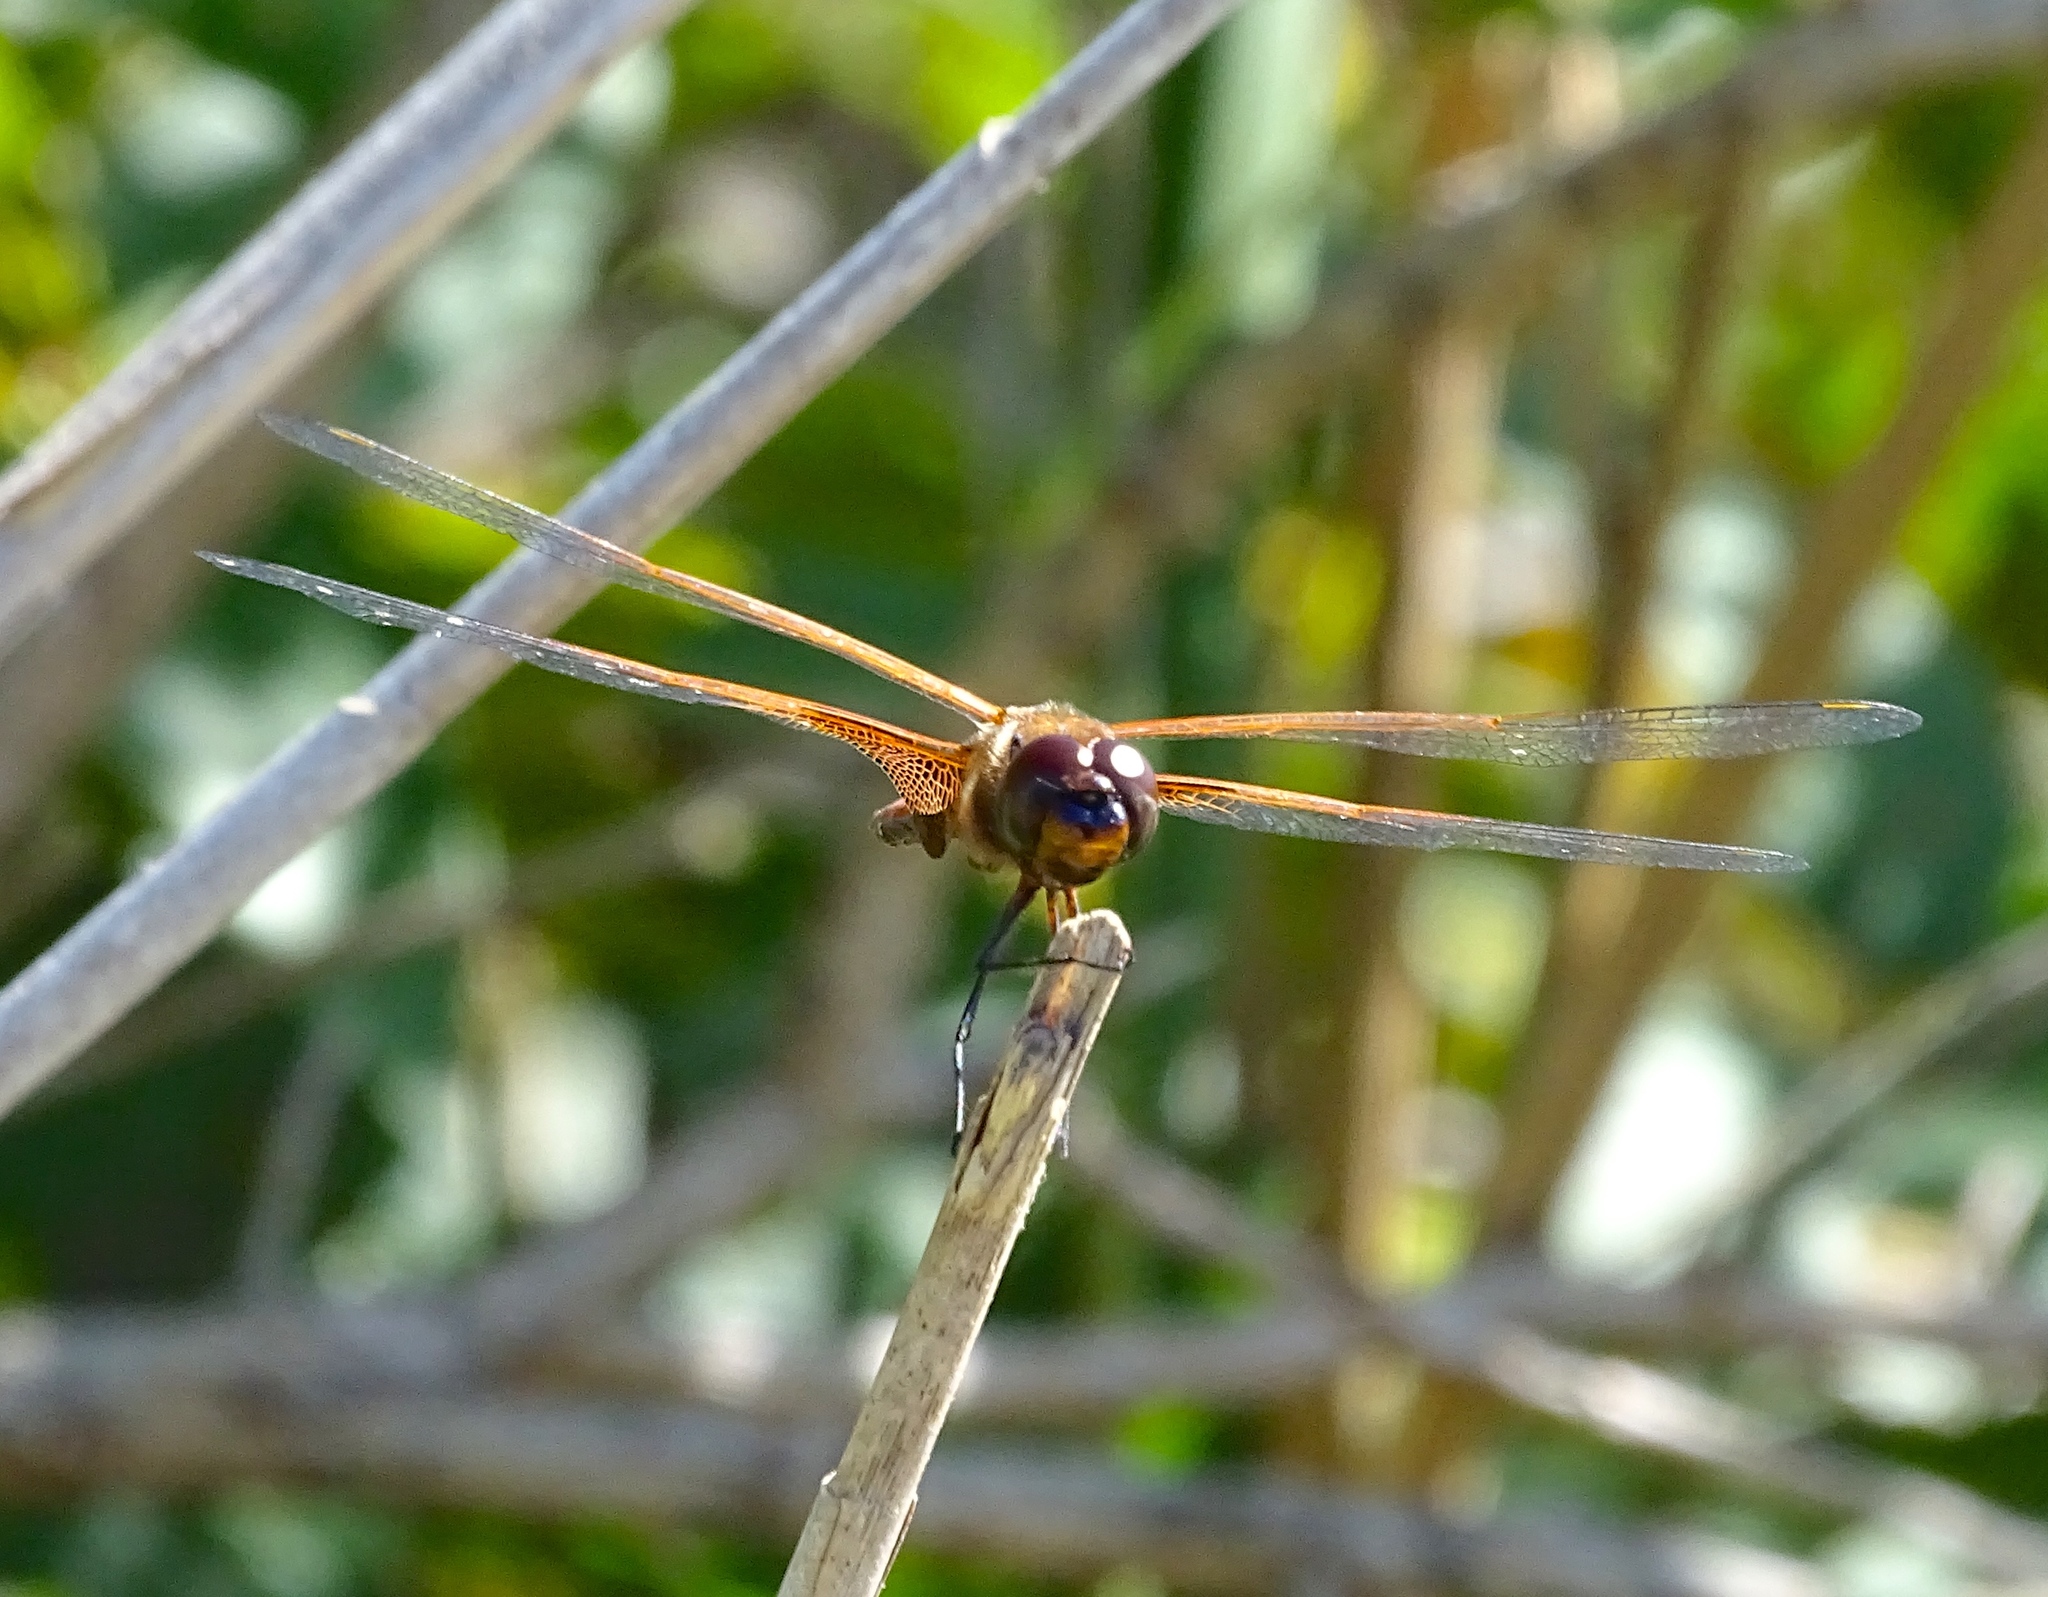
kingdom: Animalia
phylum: Arthropoda
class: Insecta
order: Odonata
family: Libellulidae
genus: Tramea
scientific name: Tramea carolina
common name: Carolina saddlebags
